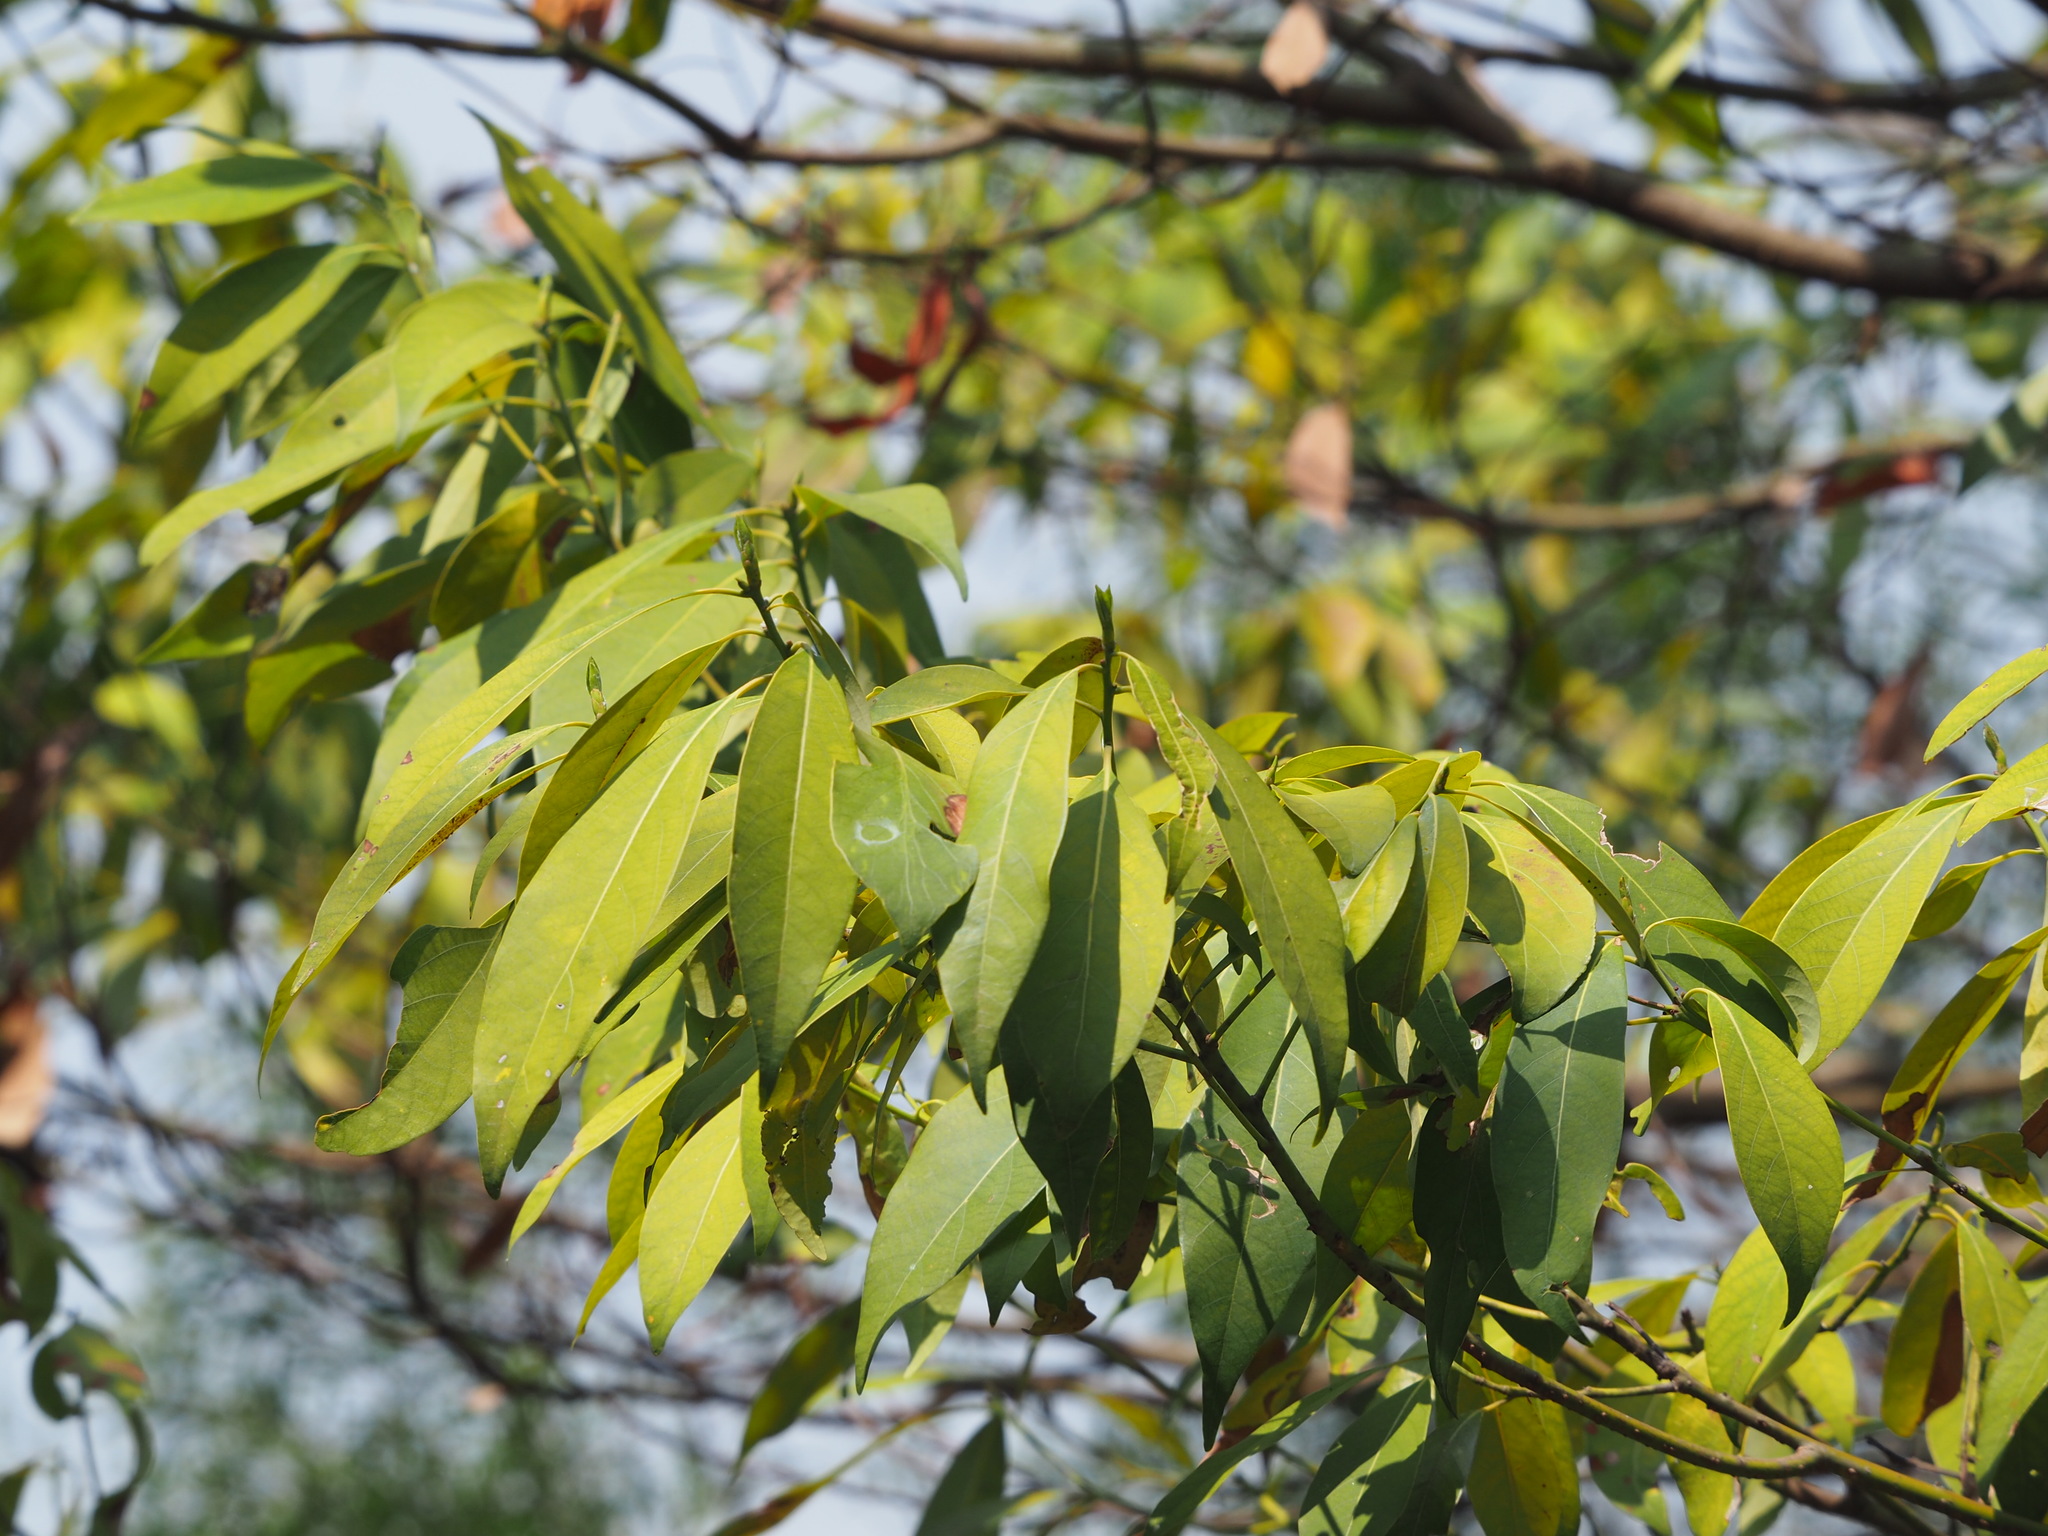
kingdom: Plantae
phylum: Tracheophyta
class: Magnoliopsida
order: Laurales
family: Lauraceae
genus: Machilus
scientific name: Machilus zuihoensis
